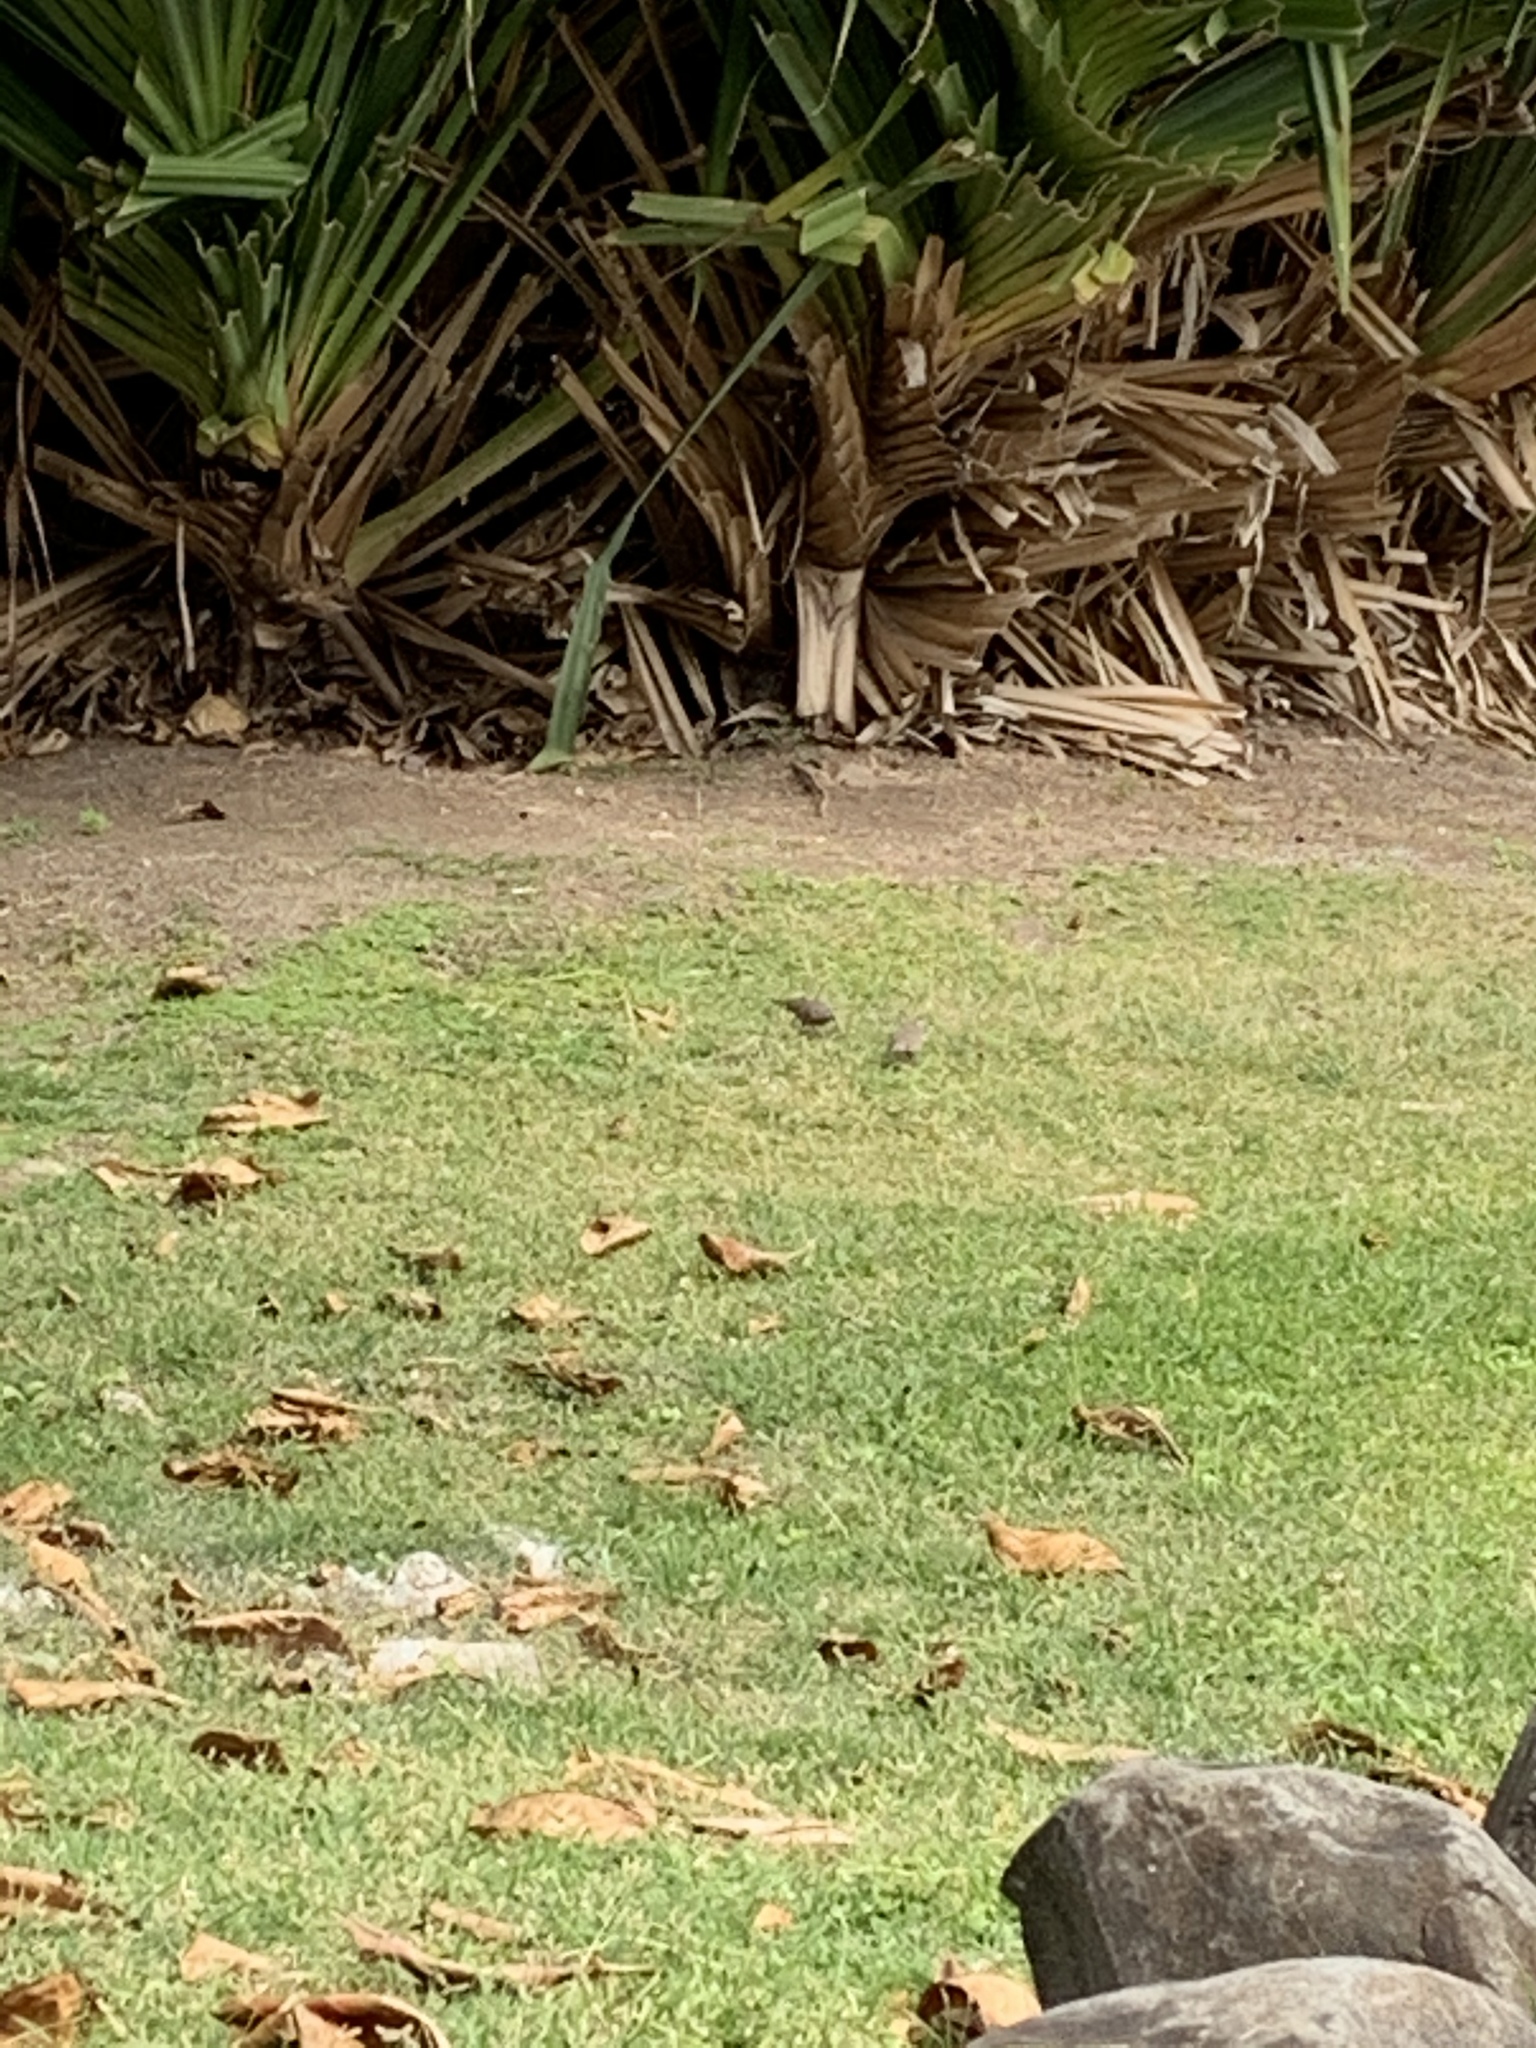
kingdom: Animalia
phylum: Chordata
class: Aves
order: Columbiformes
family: Columbidae
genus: Columbina
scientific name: Columbina passerina
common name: Common ground-dove
